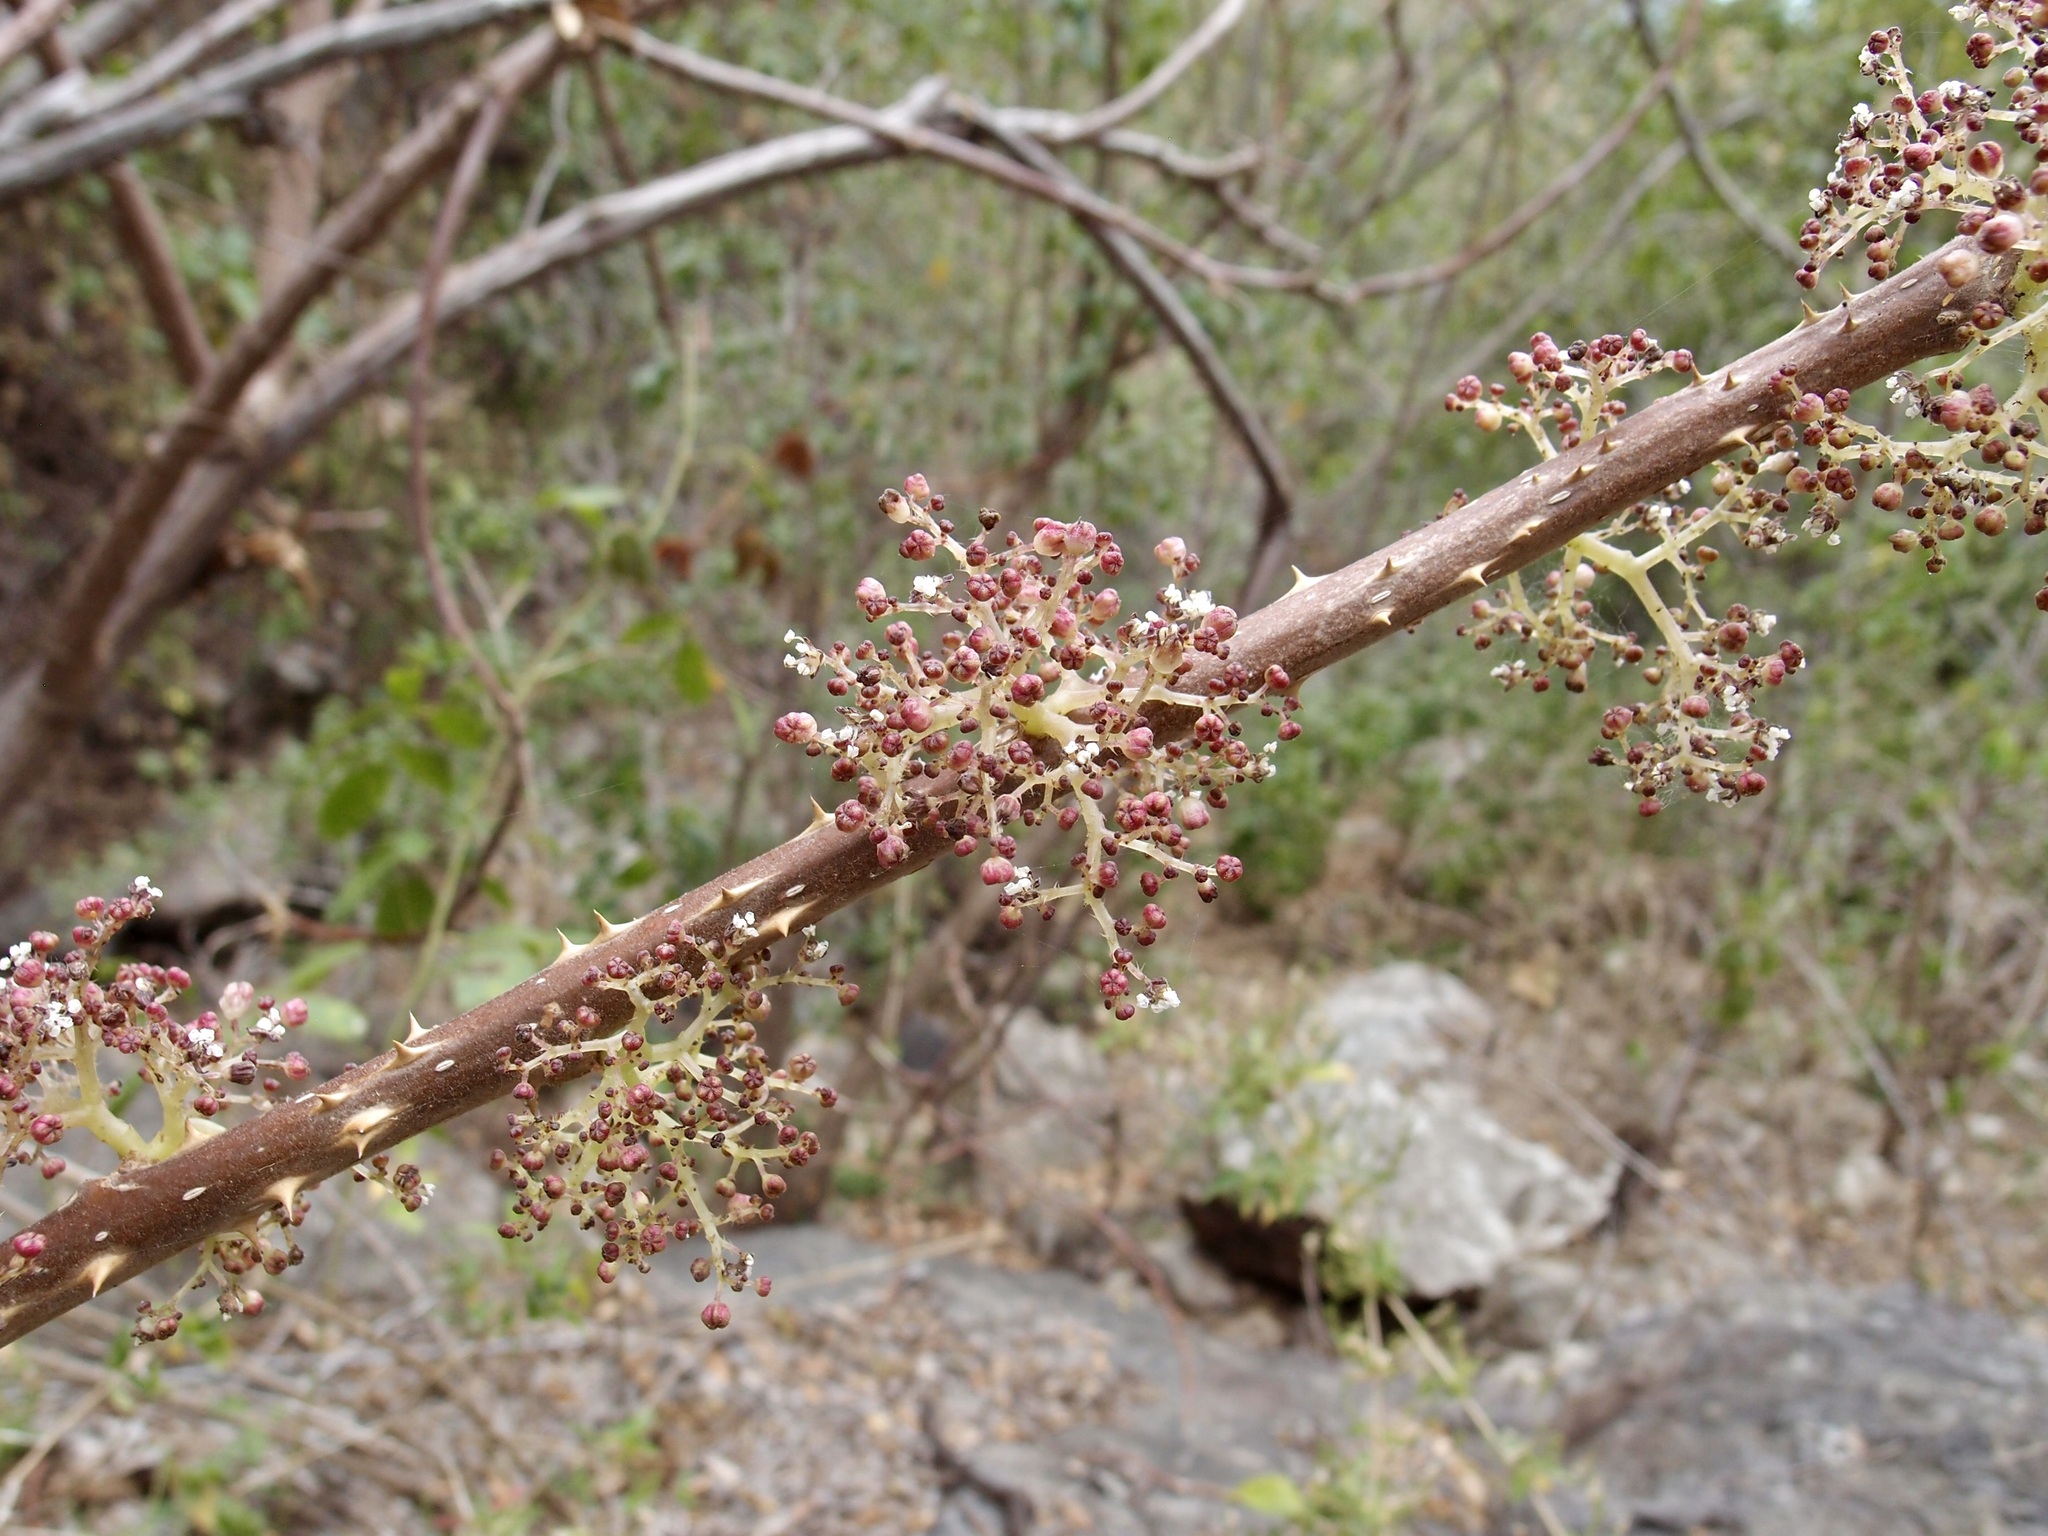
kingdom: Plantae
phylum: Tracheophyta
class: Magnoliopsida
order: Rosales
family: Urticaceae
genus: Urera
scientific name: Urera caracasana
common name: Flameberry
